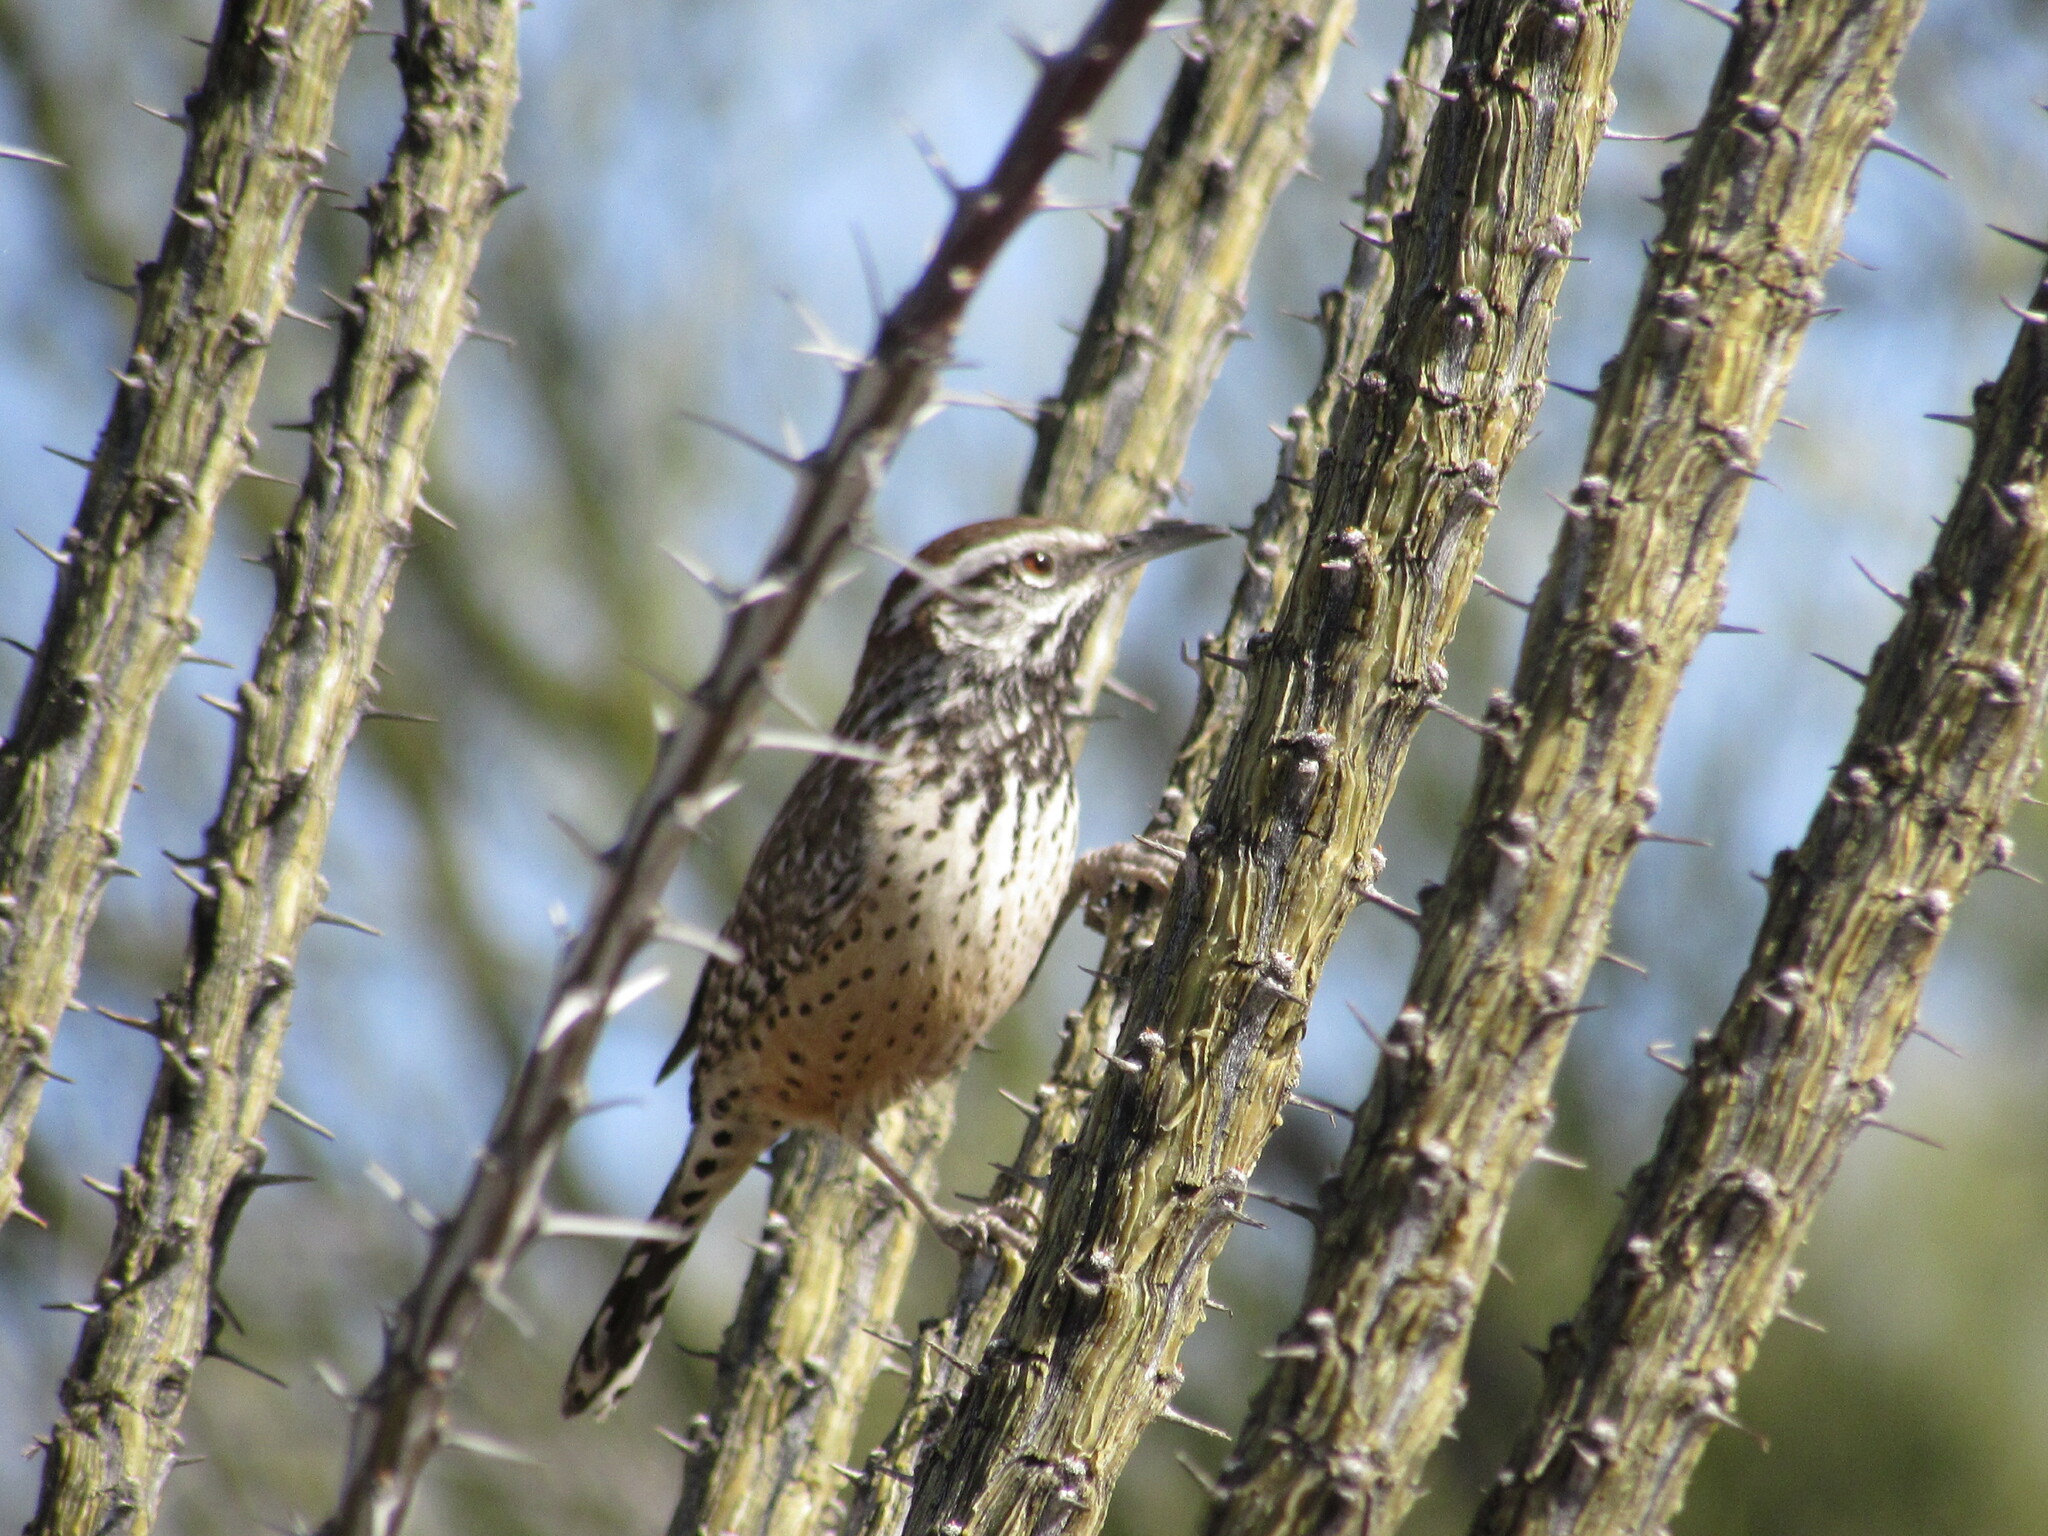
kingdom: Animalia
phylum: Chordata
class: Aves
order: Passeriformes
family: Troglodytidae
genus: Campylorhynchus
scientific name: Campylorhynchus brunneicapillus
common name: Cactus wren
